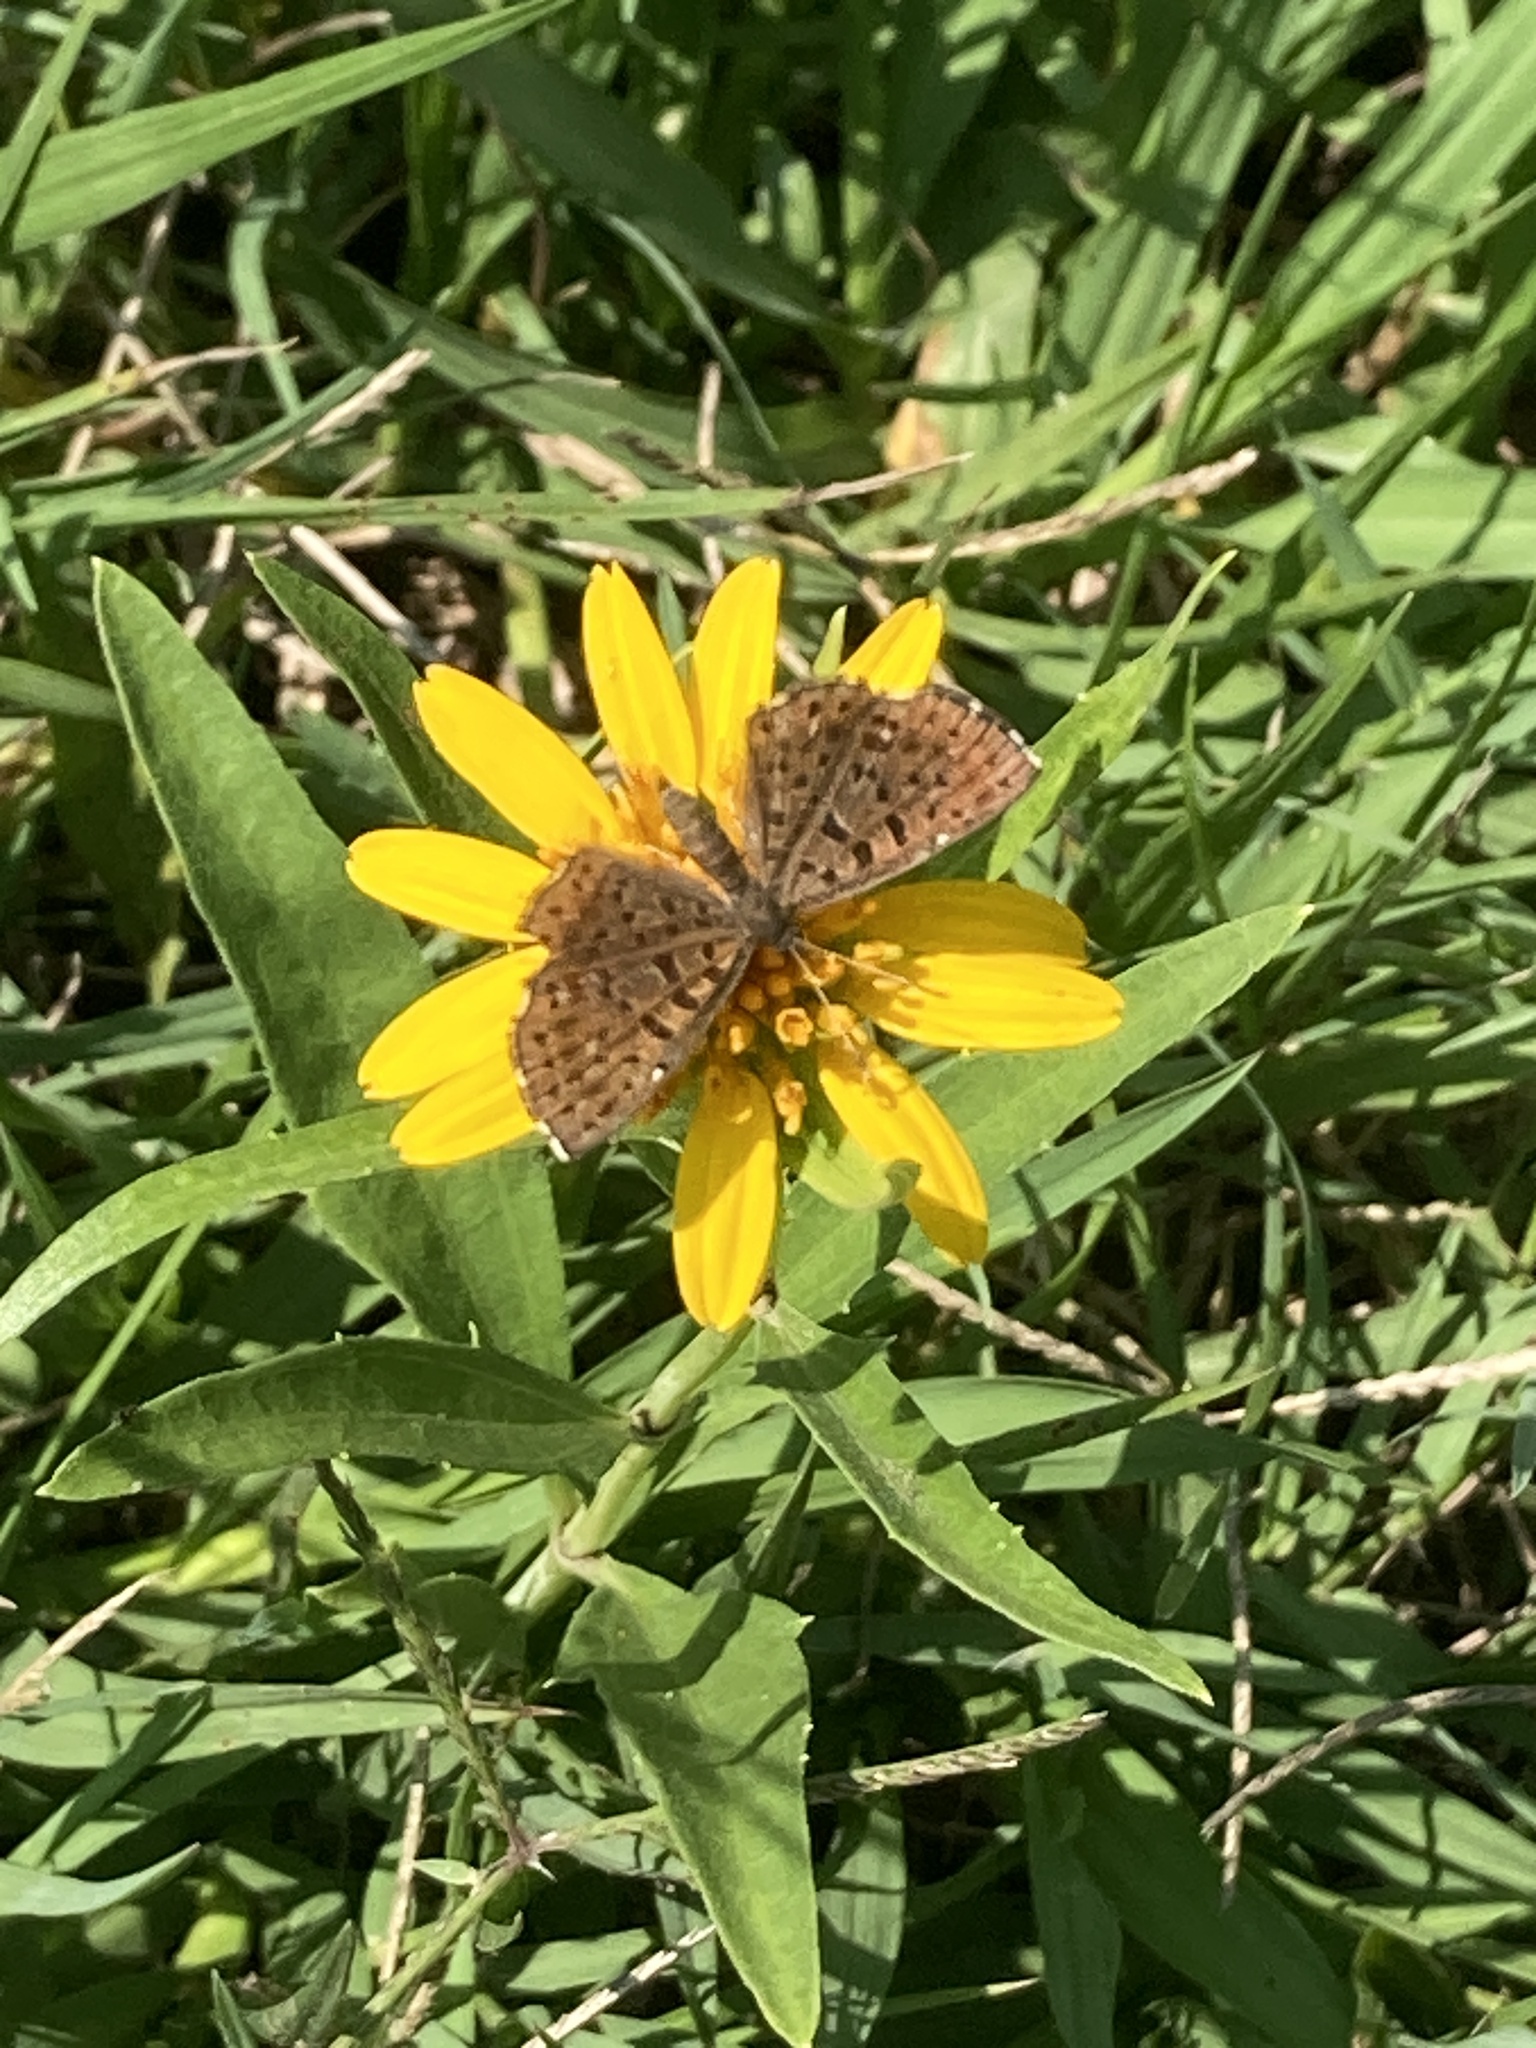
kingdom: Animalia
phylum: Arthropoda
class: Insecta
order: Lepidoptera
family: Riodinidae
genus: Teenie
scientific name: Teenie tinea
